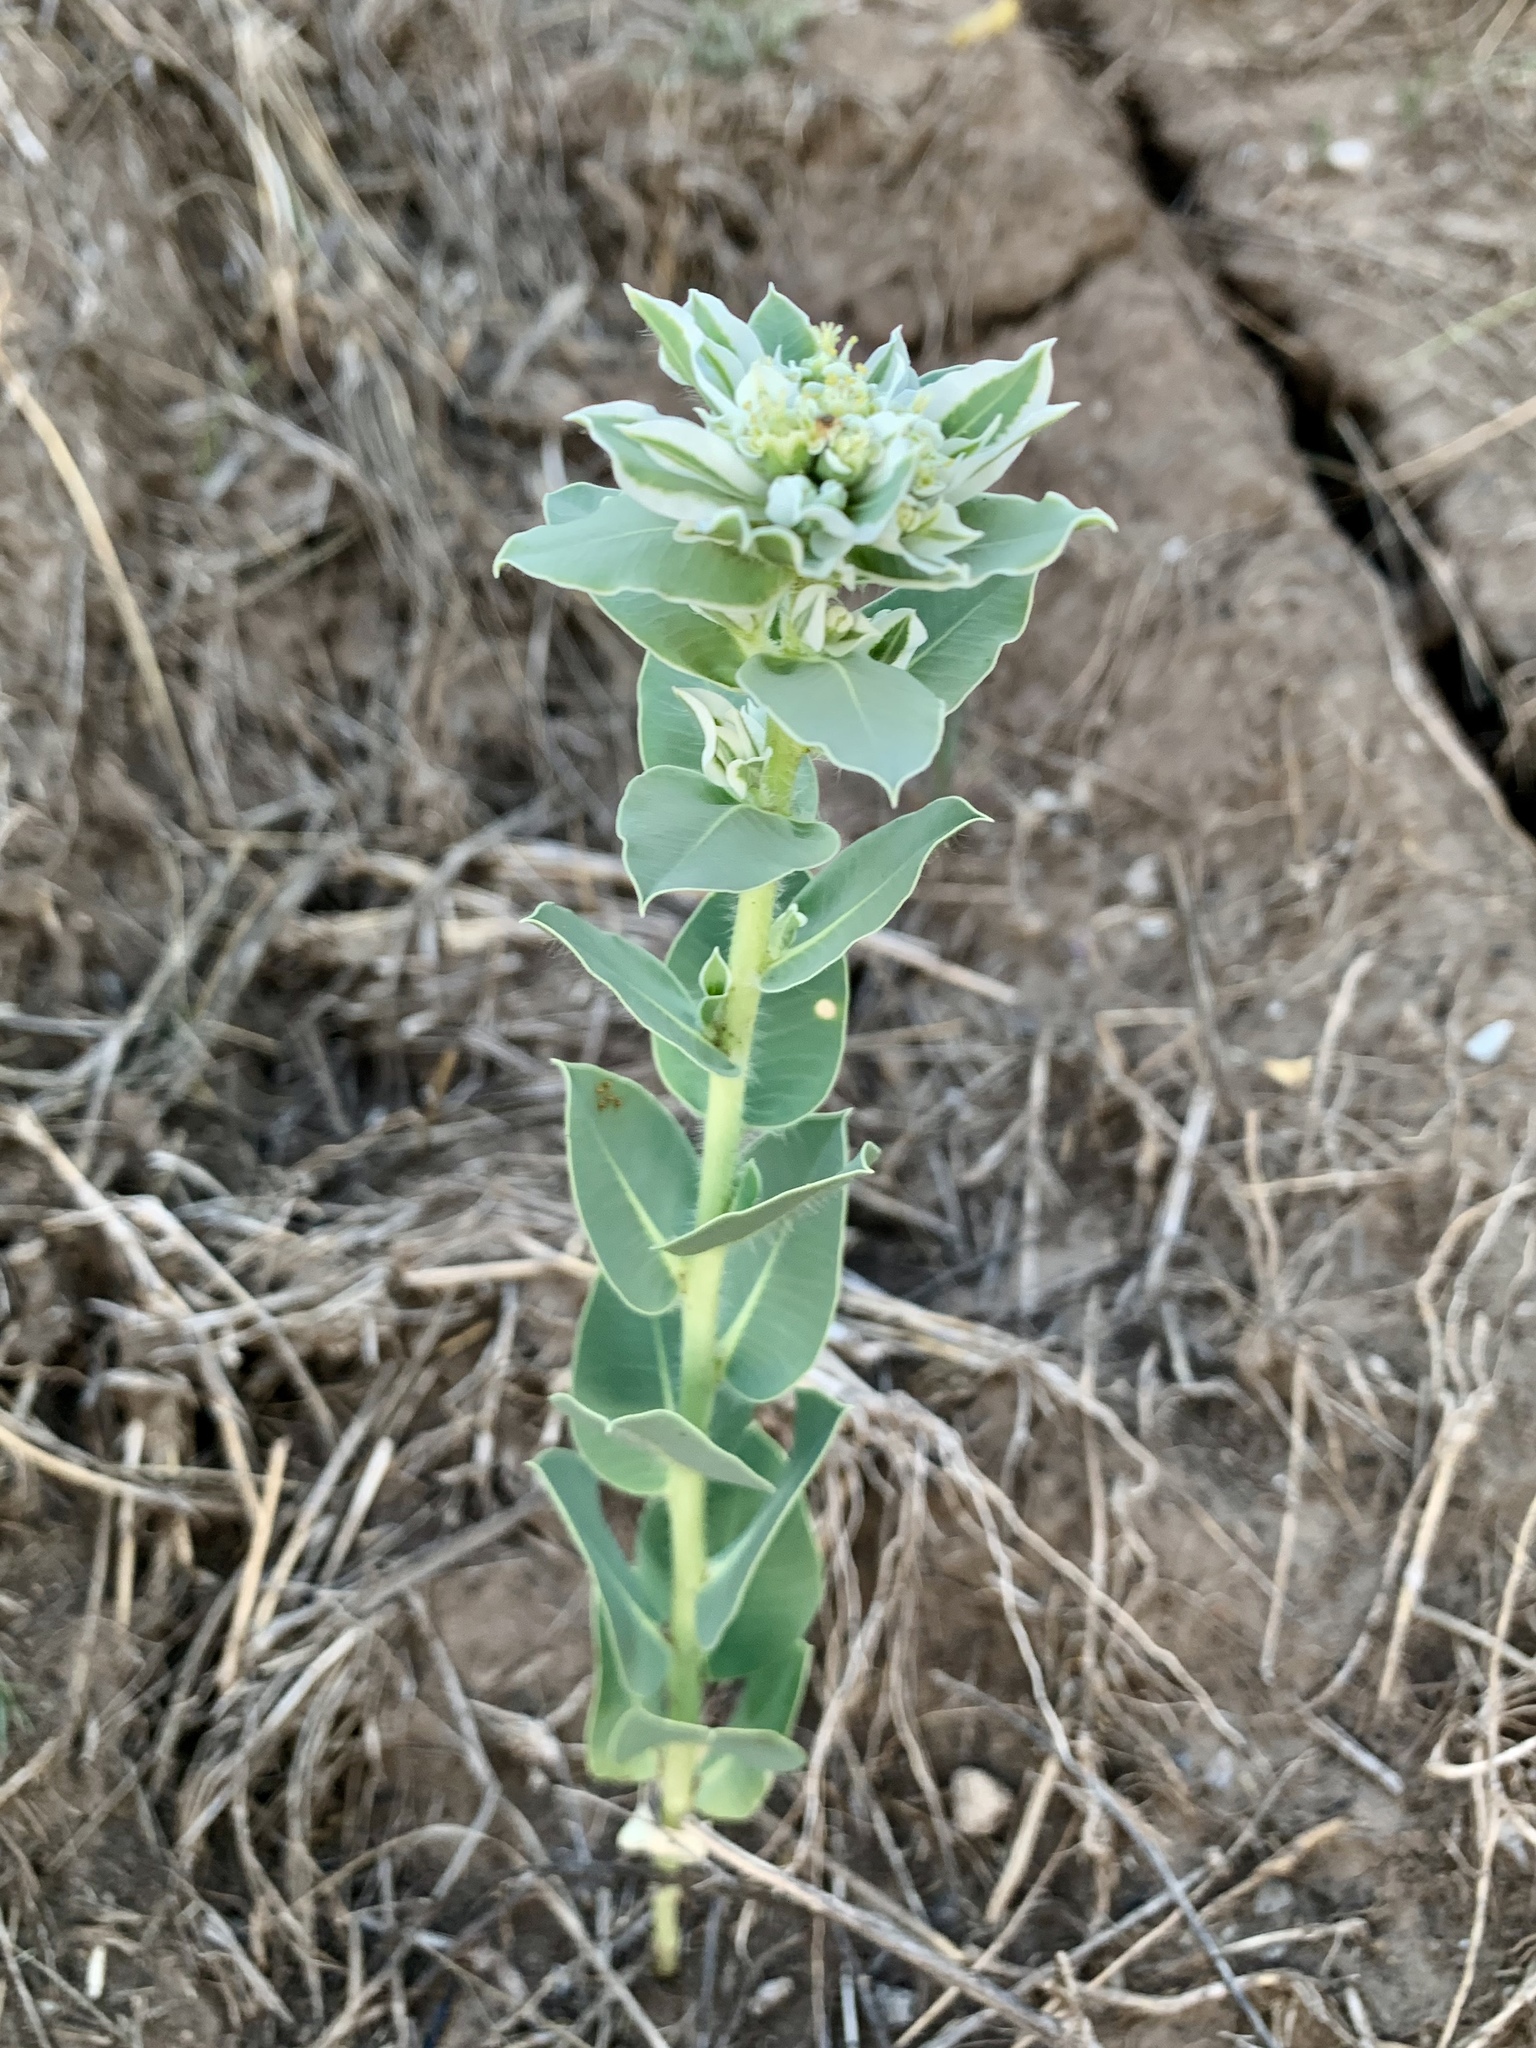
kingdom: Plantae
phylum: Tracheophyta
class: Magnoliopsida
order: Malpighiales
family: Euphorbiaceae
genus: Euphorbia
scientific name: Euphorbia marginata
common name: Ghostweed
